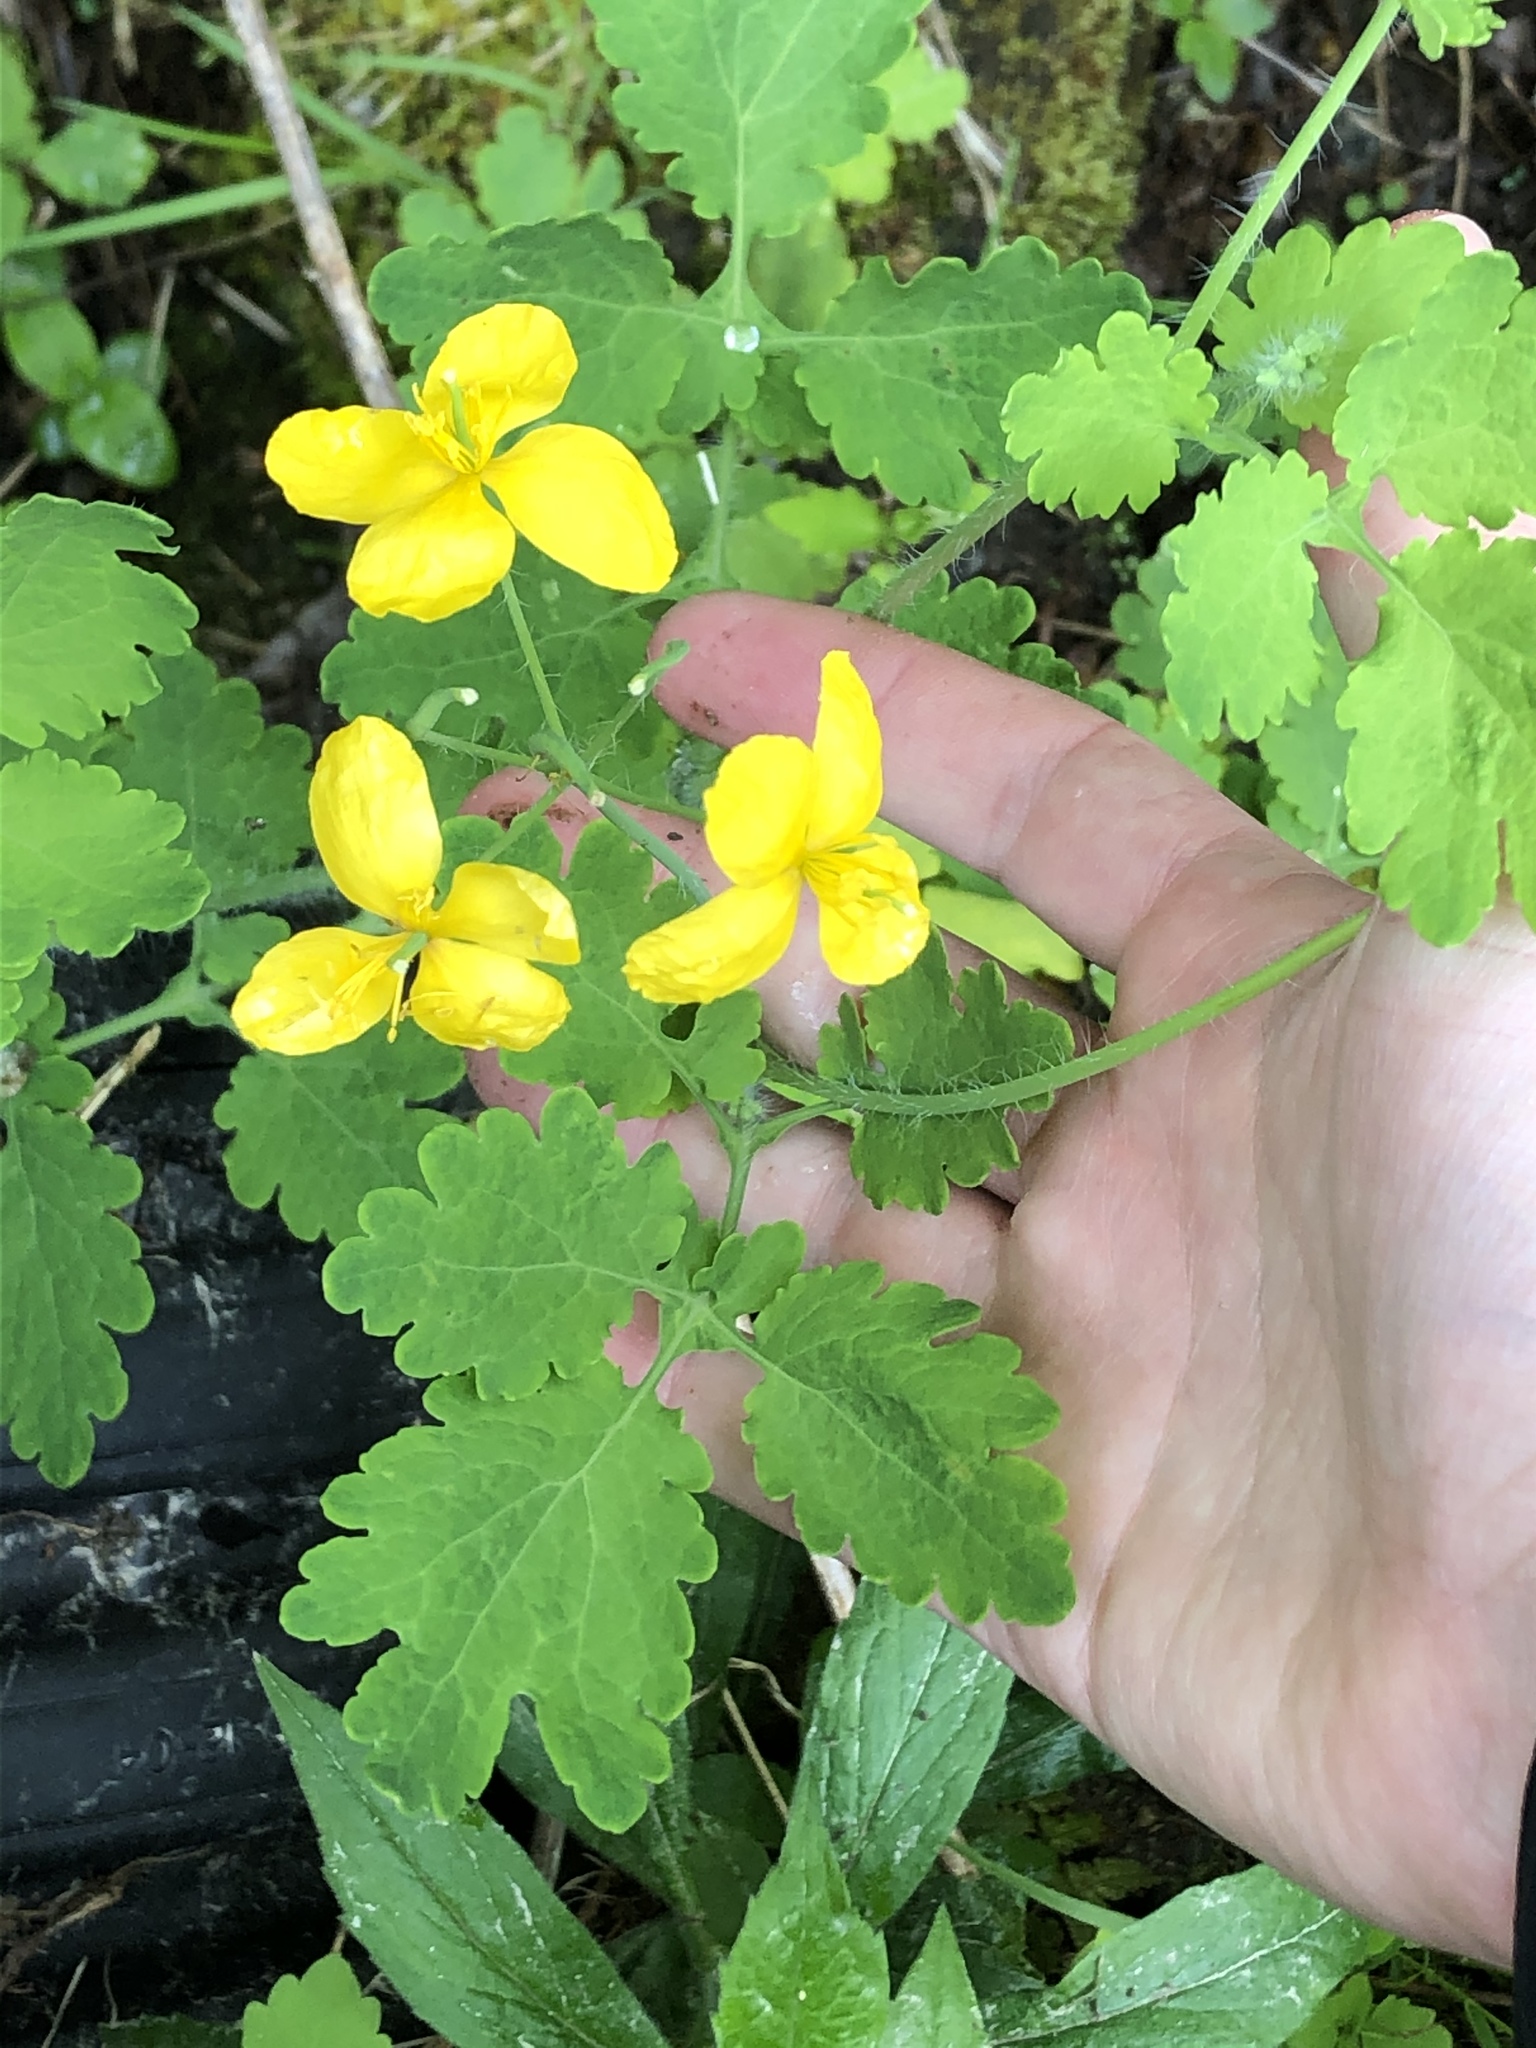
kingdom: Plantae
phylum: Tracheophyta
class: Magnoliopsida
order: Ranunculales
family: Papaveraceae
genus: Chelidonium
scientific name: Chelidonium majus
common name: Greater celandine
